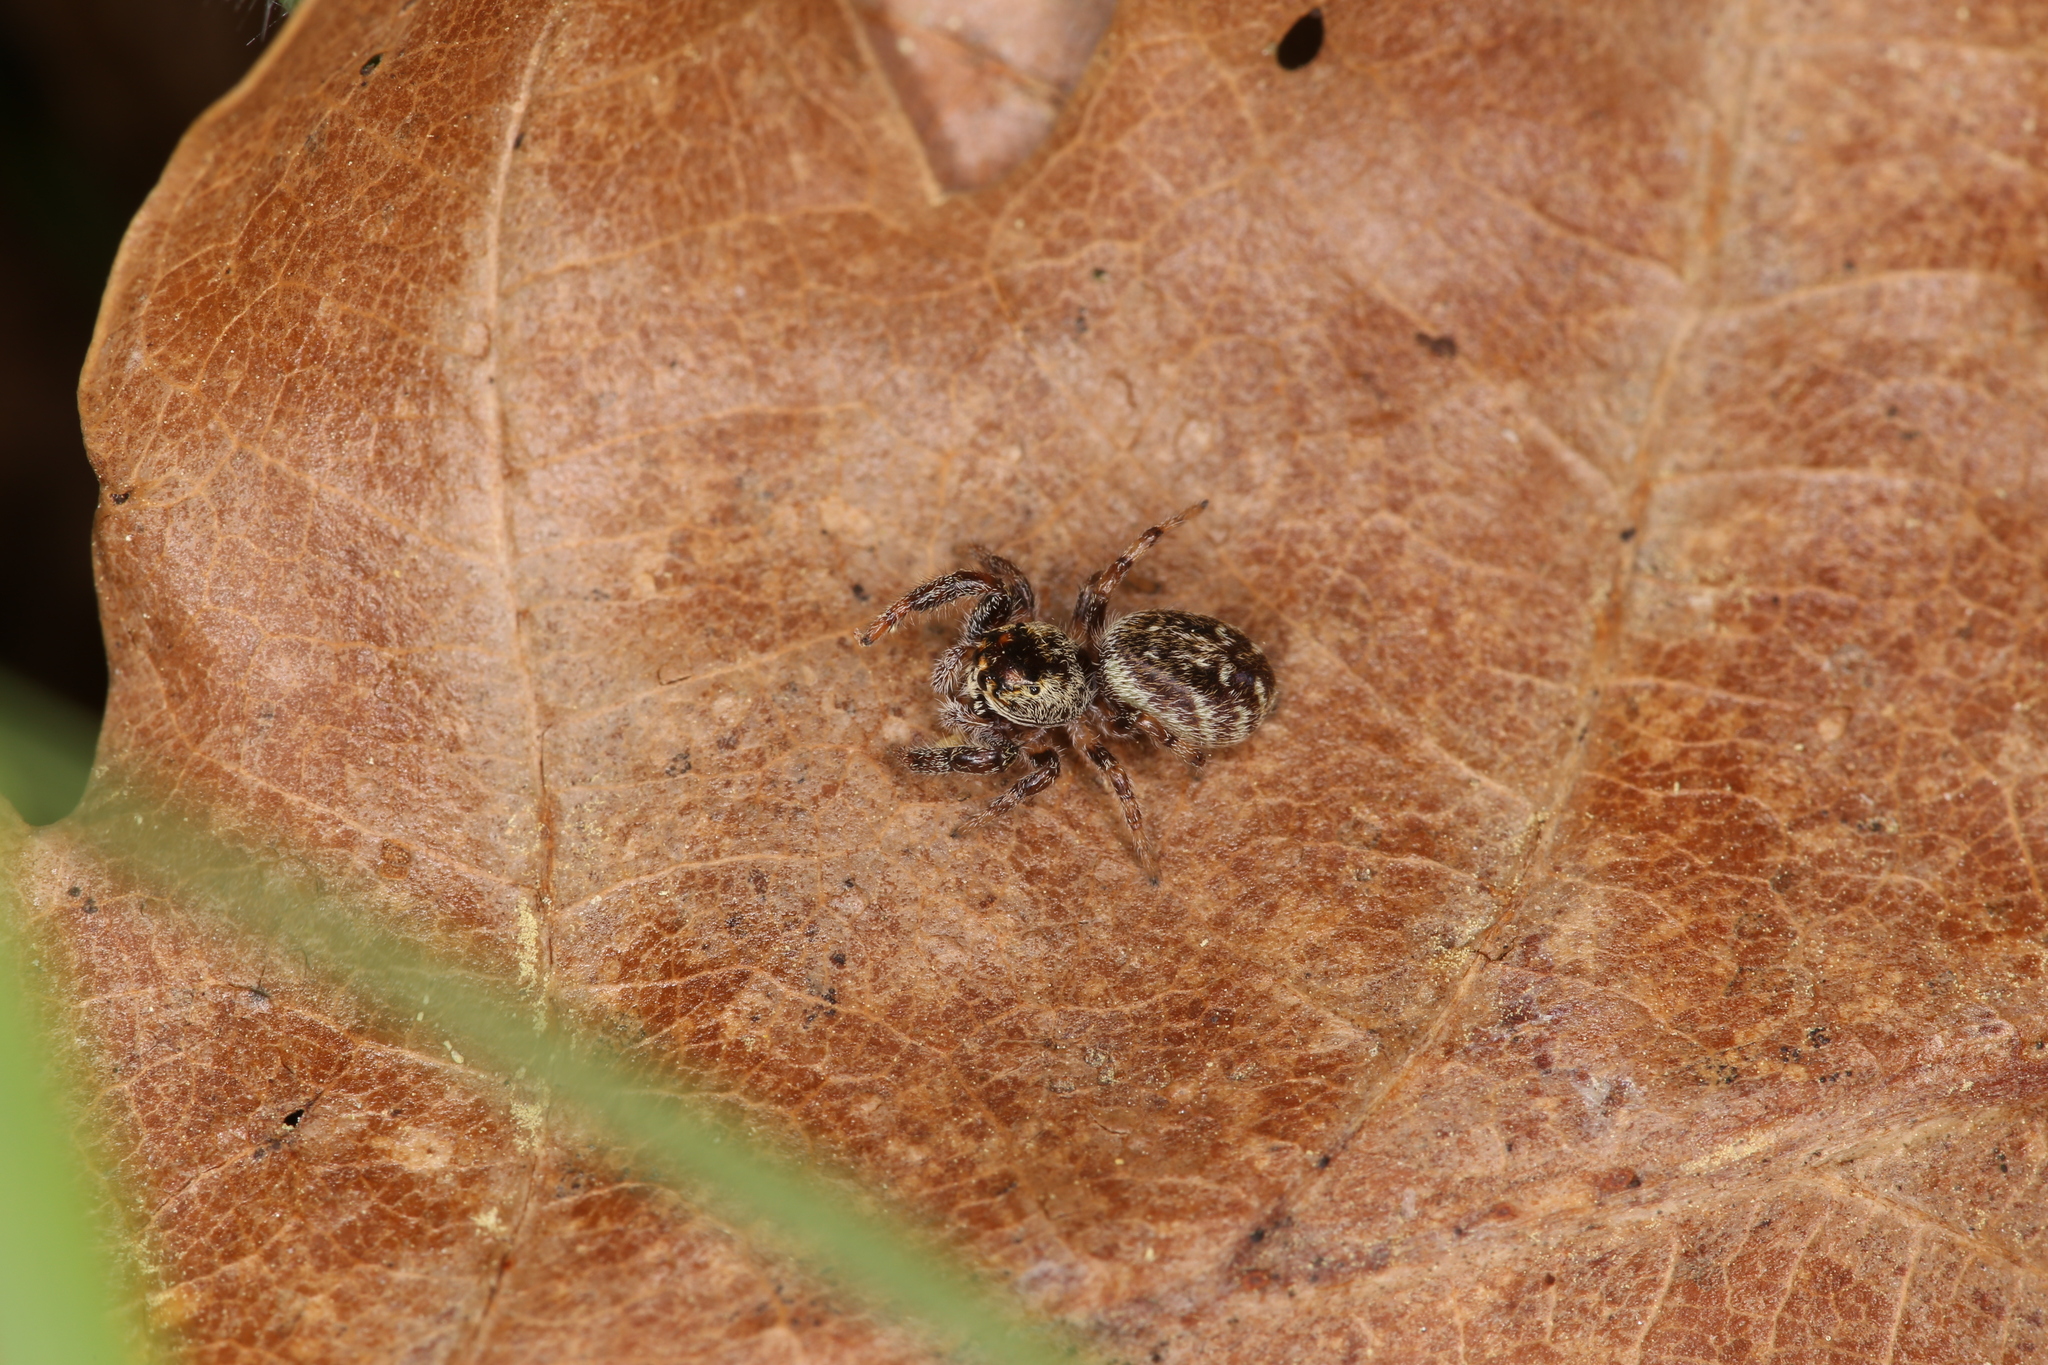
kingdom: Animalia
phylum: Arthropoda
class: Arachnida
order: Araneae
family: Salticidae
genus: Macaroeris
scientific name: Macaroeris nidicolens
